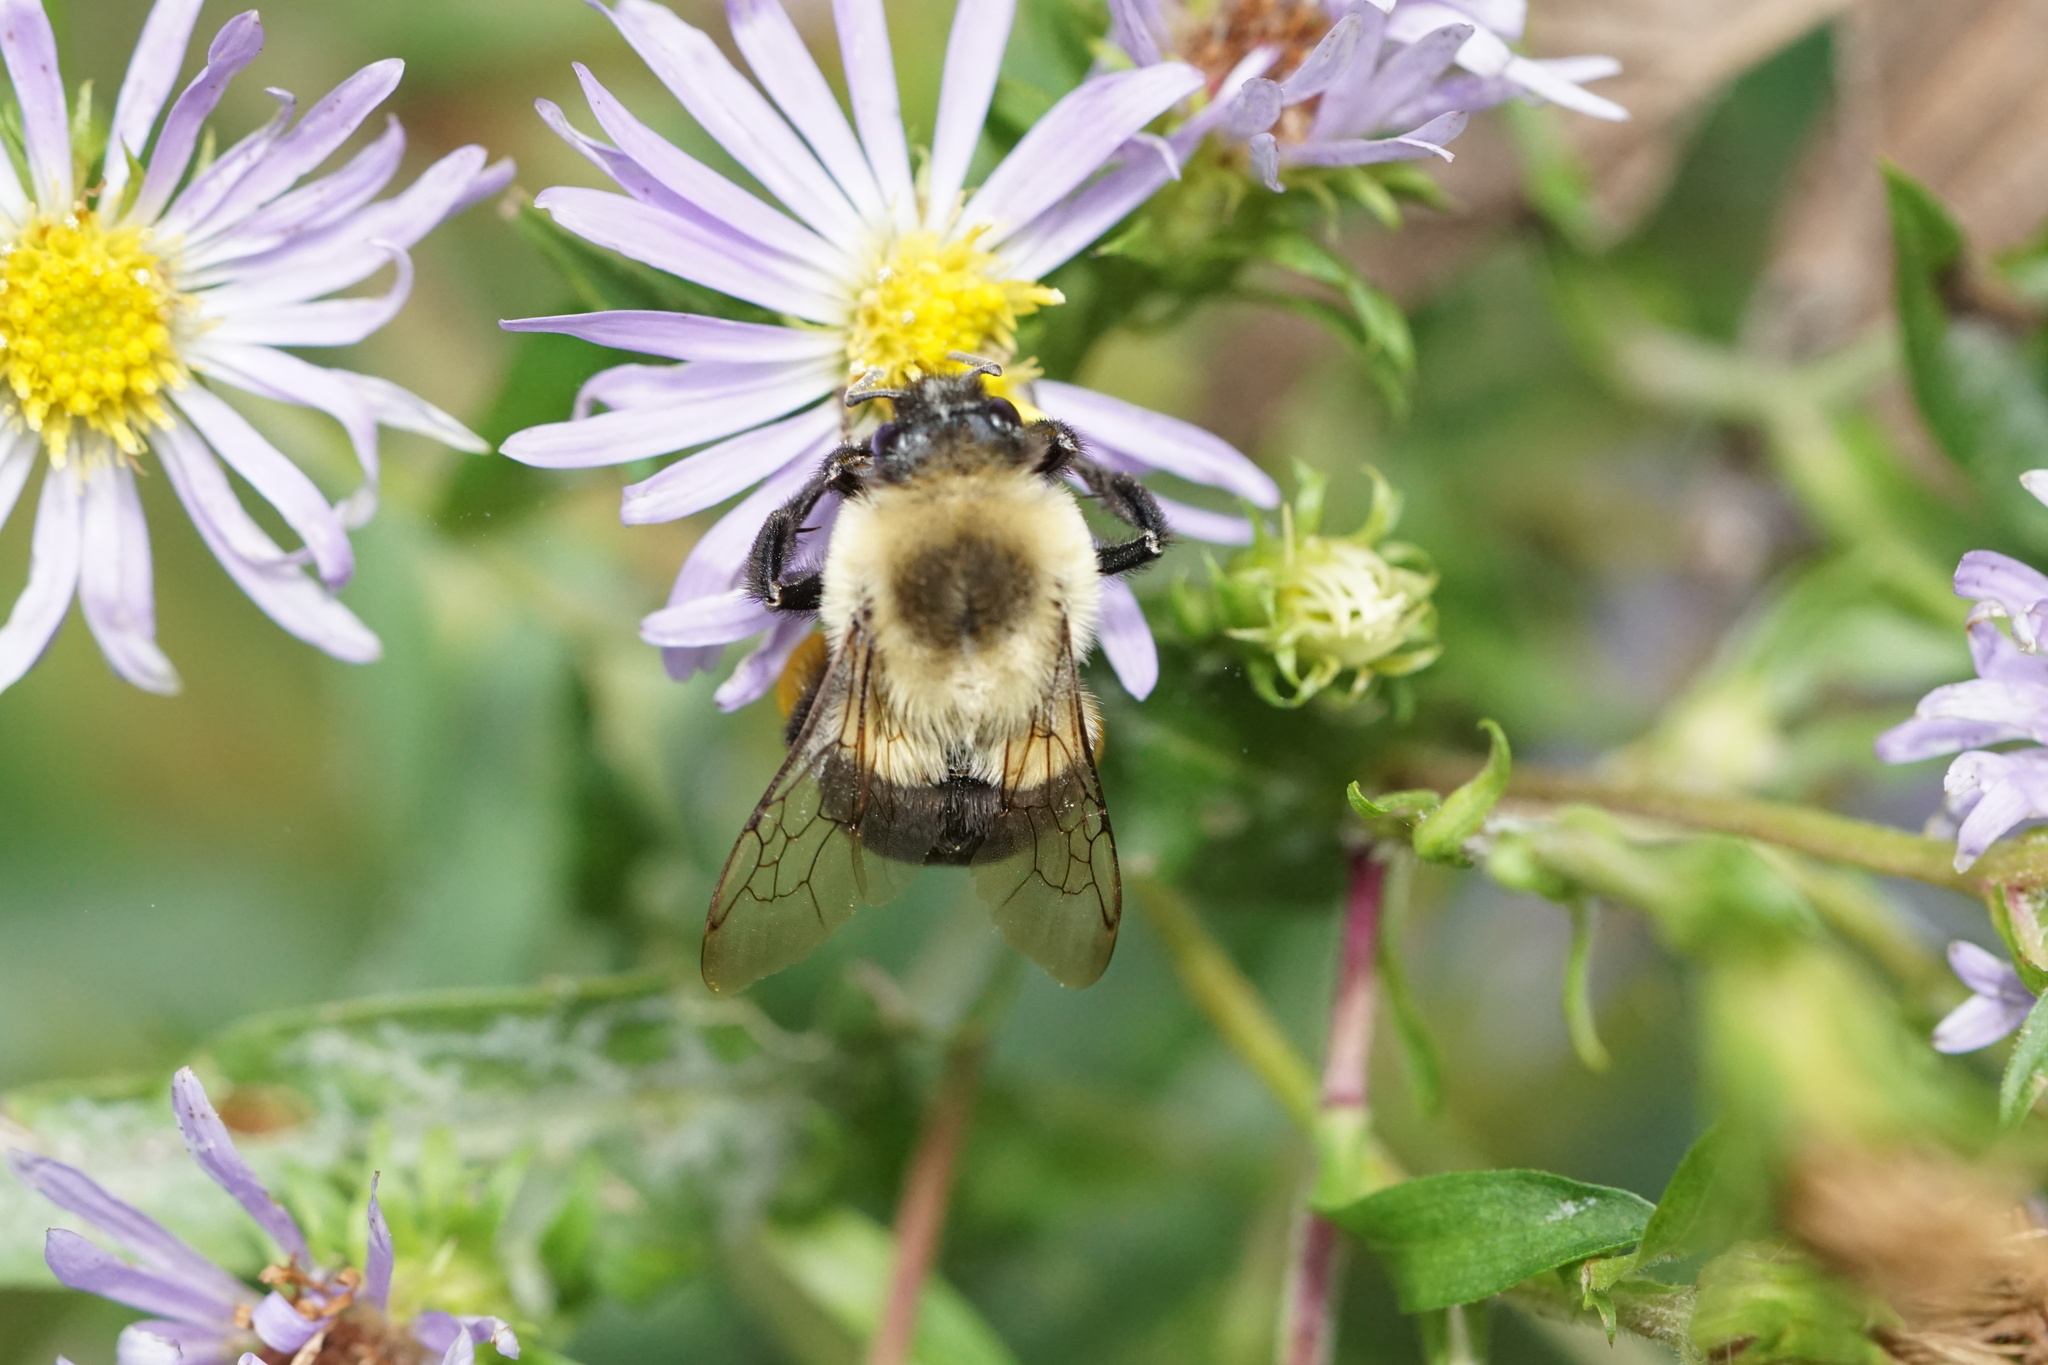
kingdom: Animalia
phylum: Arthropoda
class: Insecta
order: Hymenoptera
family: Apidae
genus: Bombus
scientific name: Bombus impatiens
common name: Common eastern bumble bee
